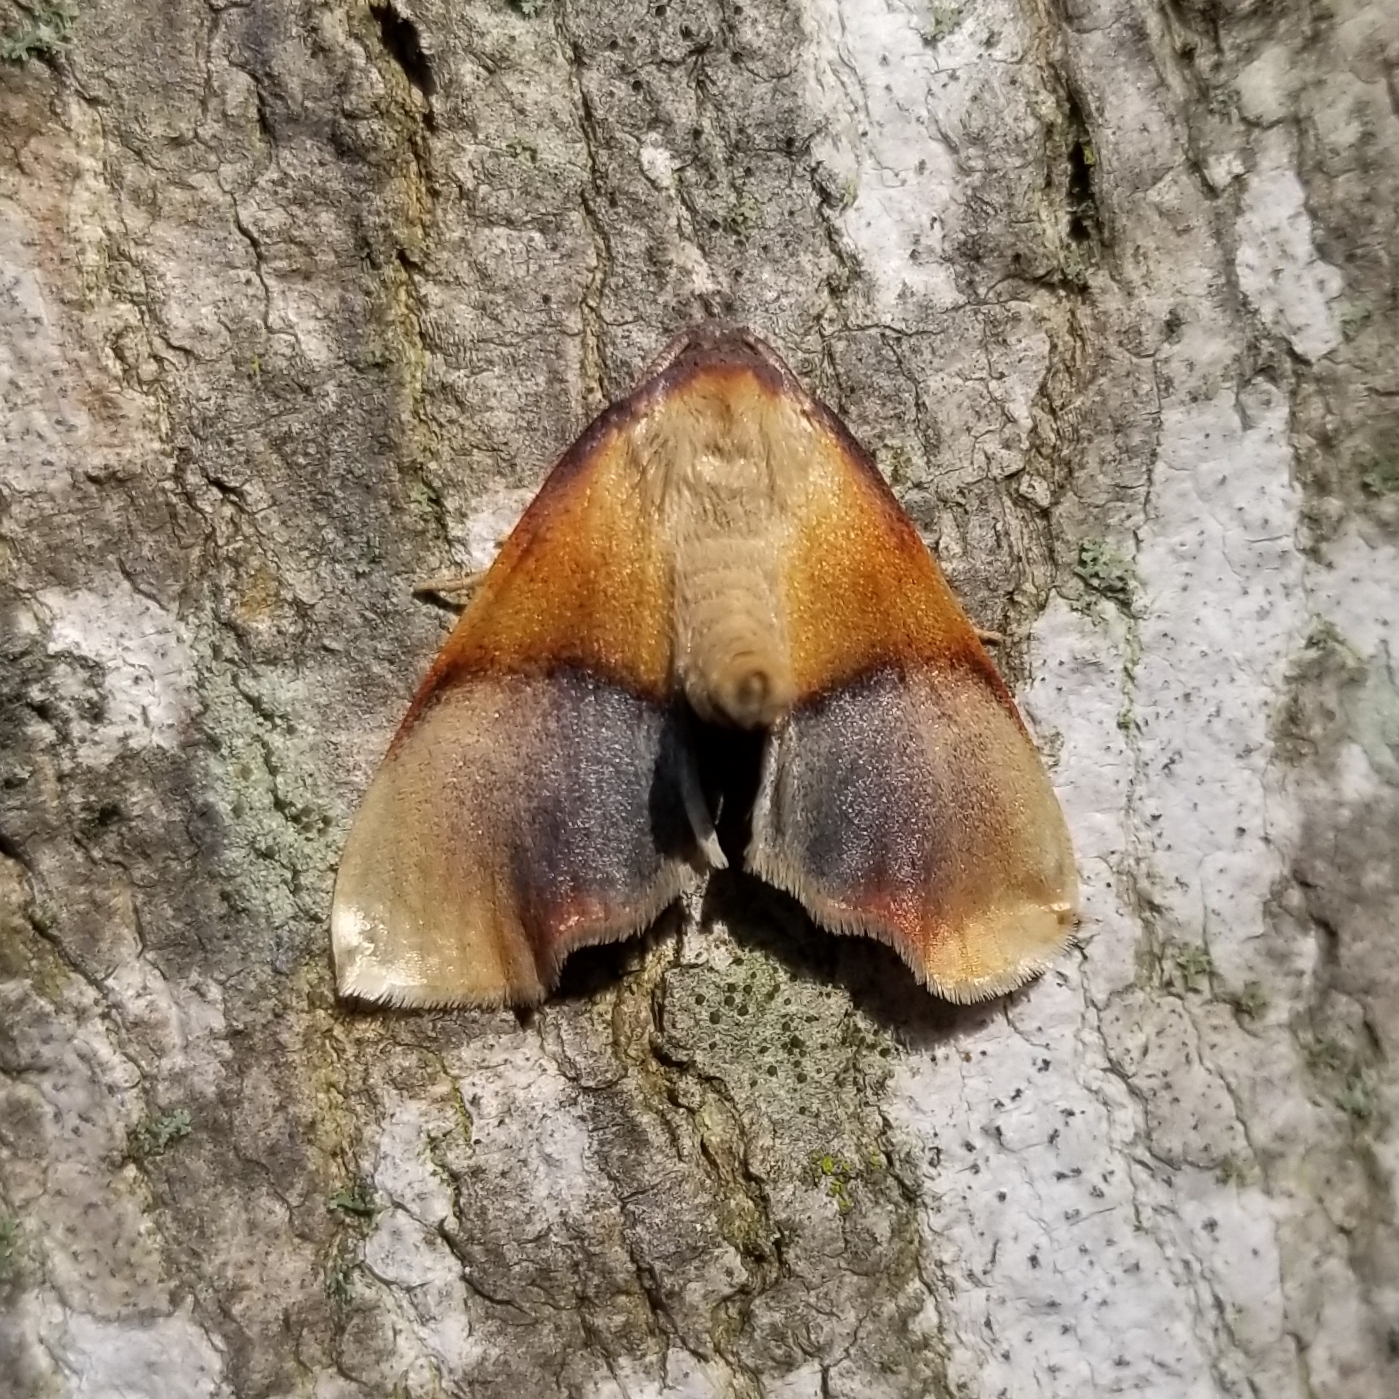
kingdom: Animalia
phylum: Arthropoda
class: Insecta
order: Lepidoptera
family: Geometridae
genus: Plagodis
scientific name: Plagodis kuetzingi
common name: Purple plagodis
